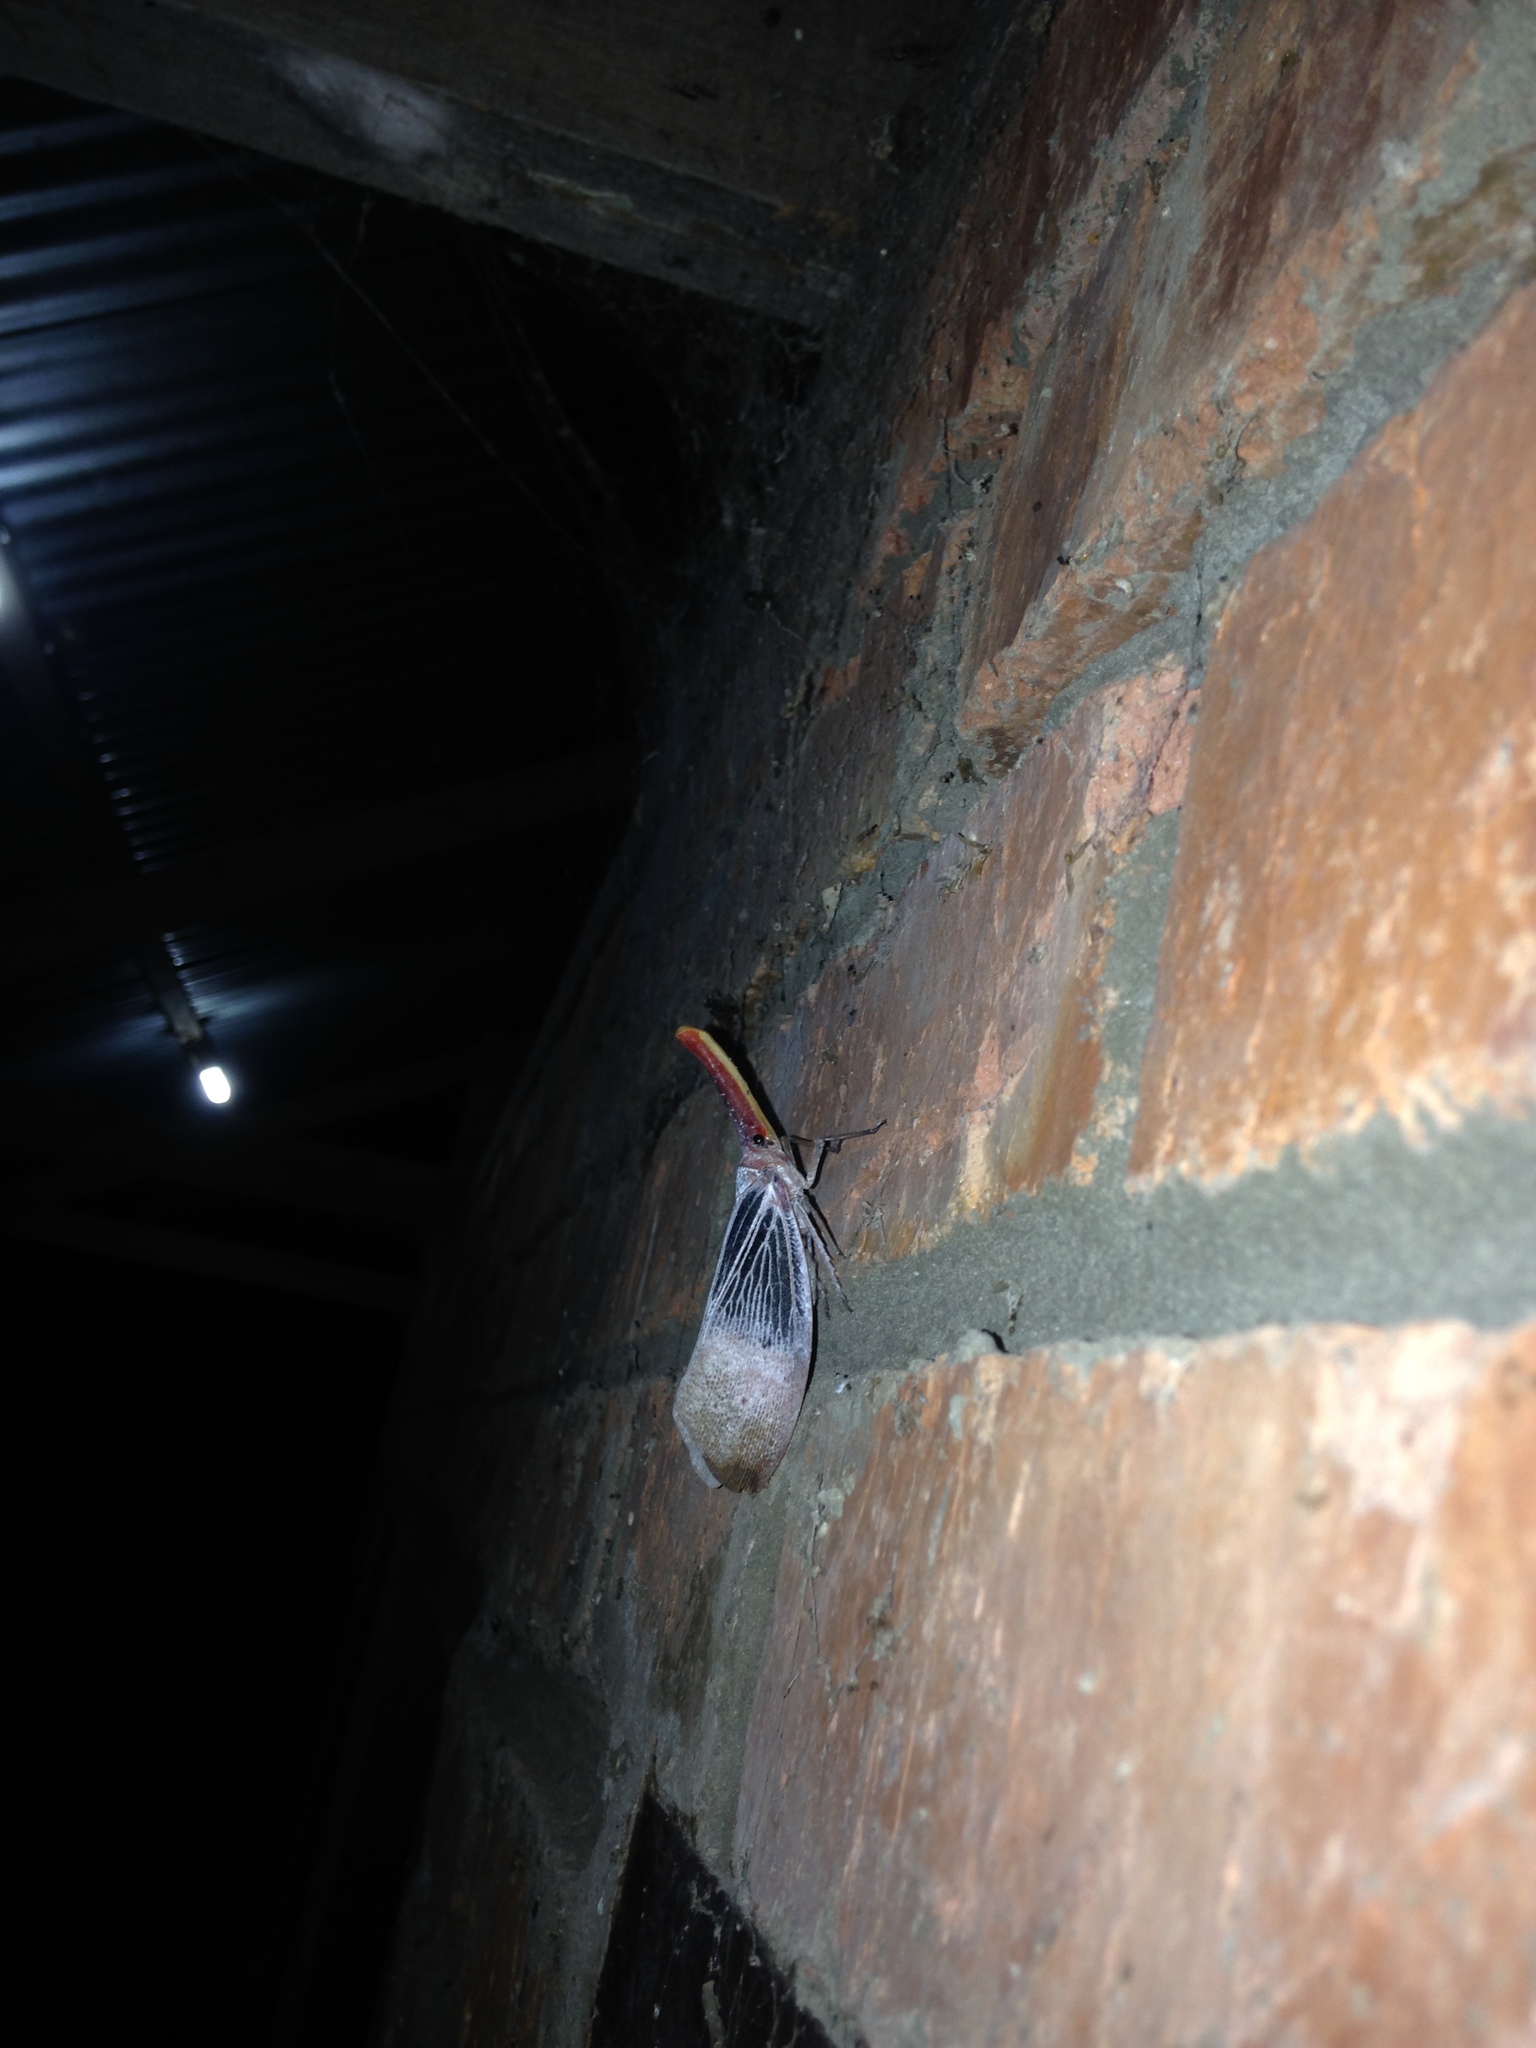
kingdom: Animalia
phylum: Arthropoda
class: Insecta
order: Hemiptera
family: Fulgoridae
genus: Pyrops
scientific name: Pyrops sultanus
